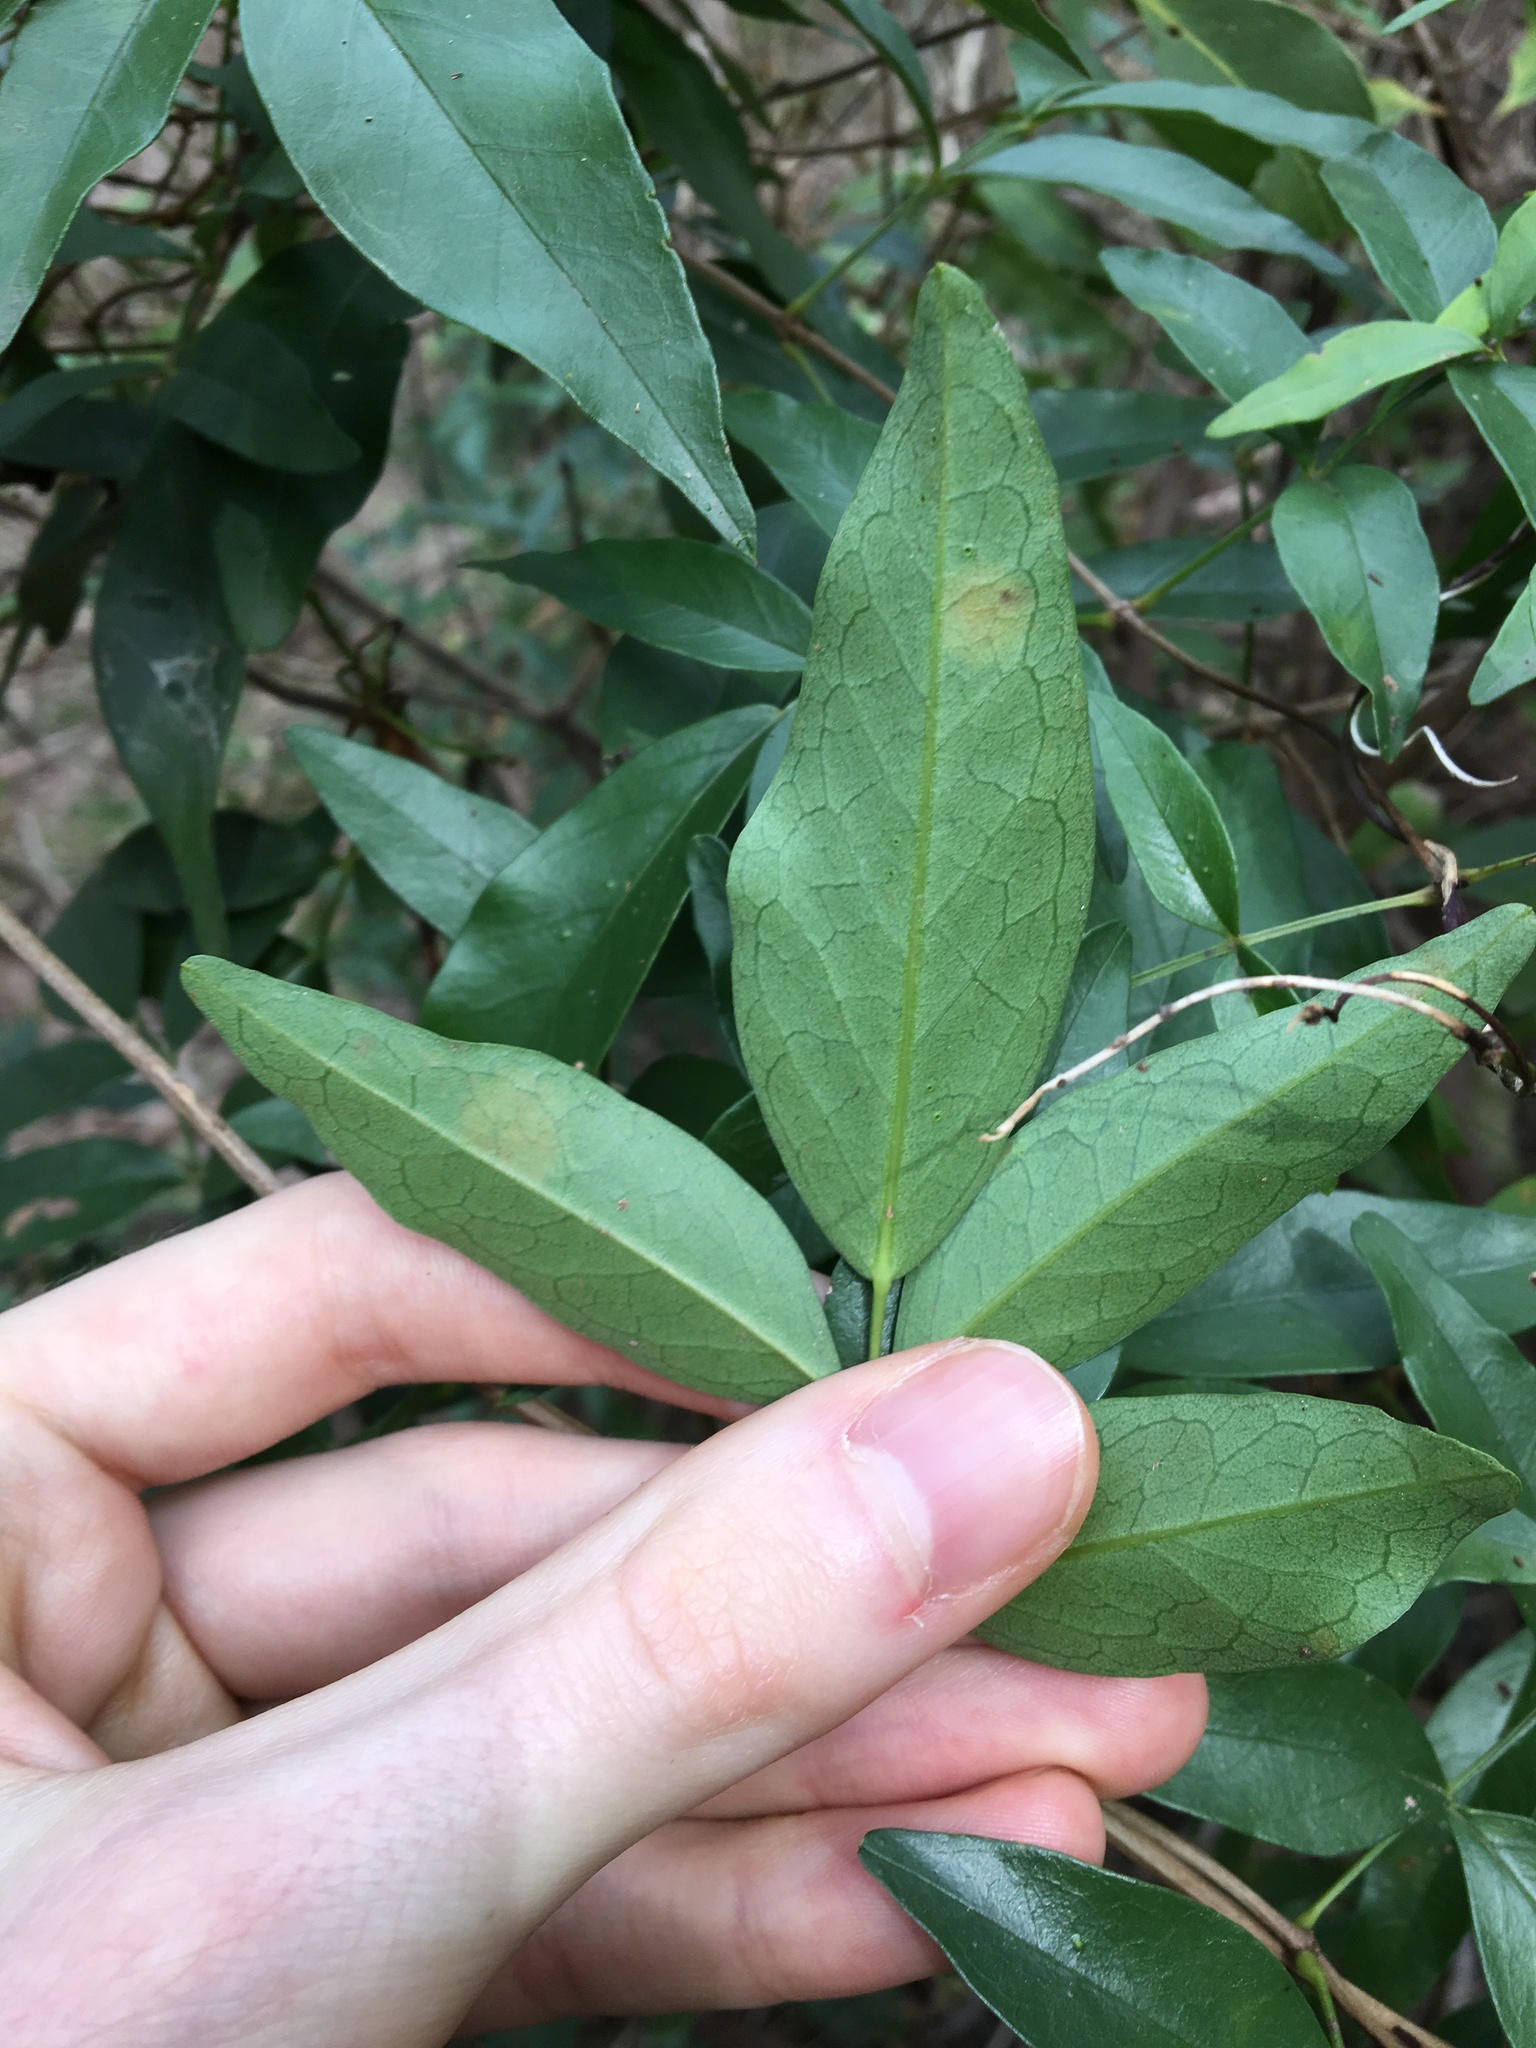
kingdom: Plantae
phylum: Tracheophyta
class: Magnoliopsida
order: Lamiales
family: Bignoniaceae
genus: Pandorea
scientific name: Pandorea pandorana
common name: Wonga-wonga-vine
